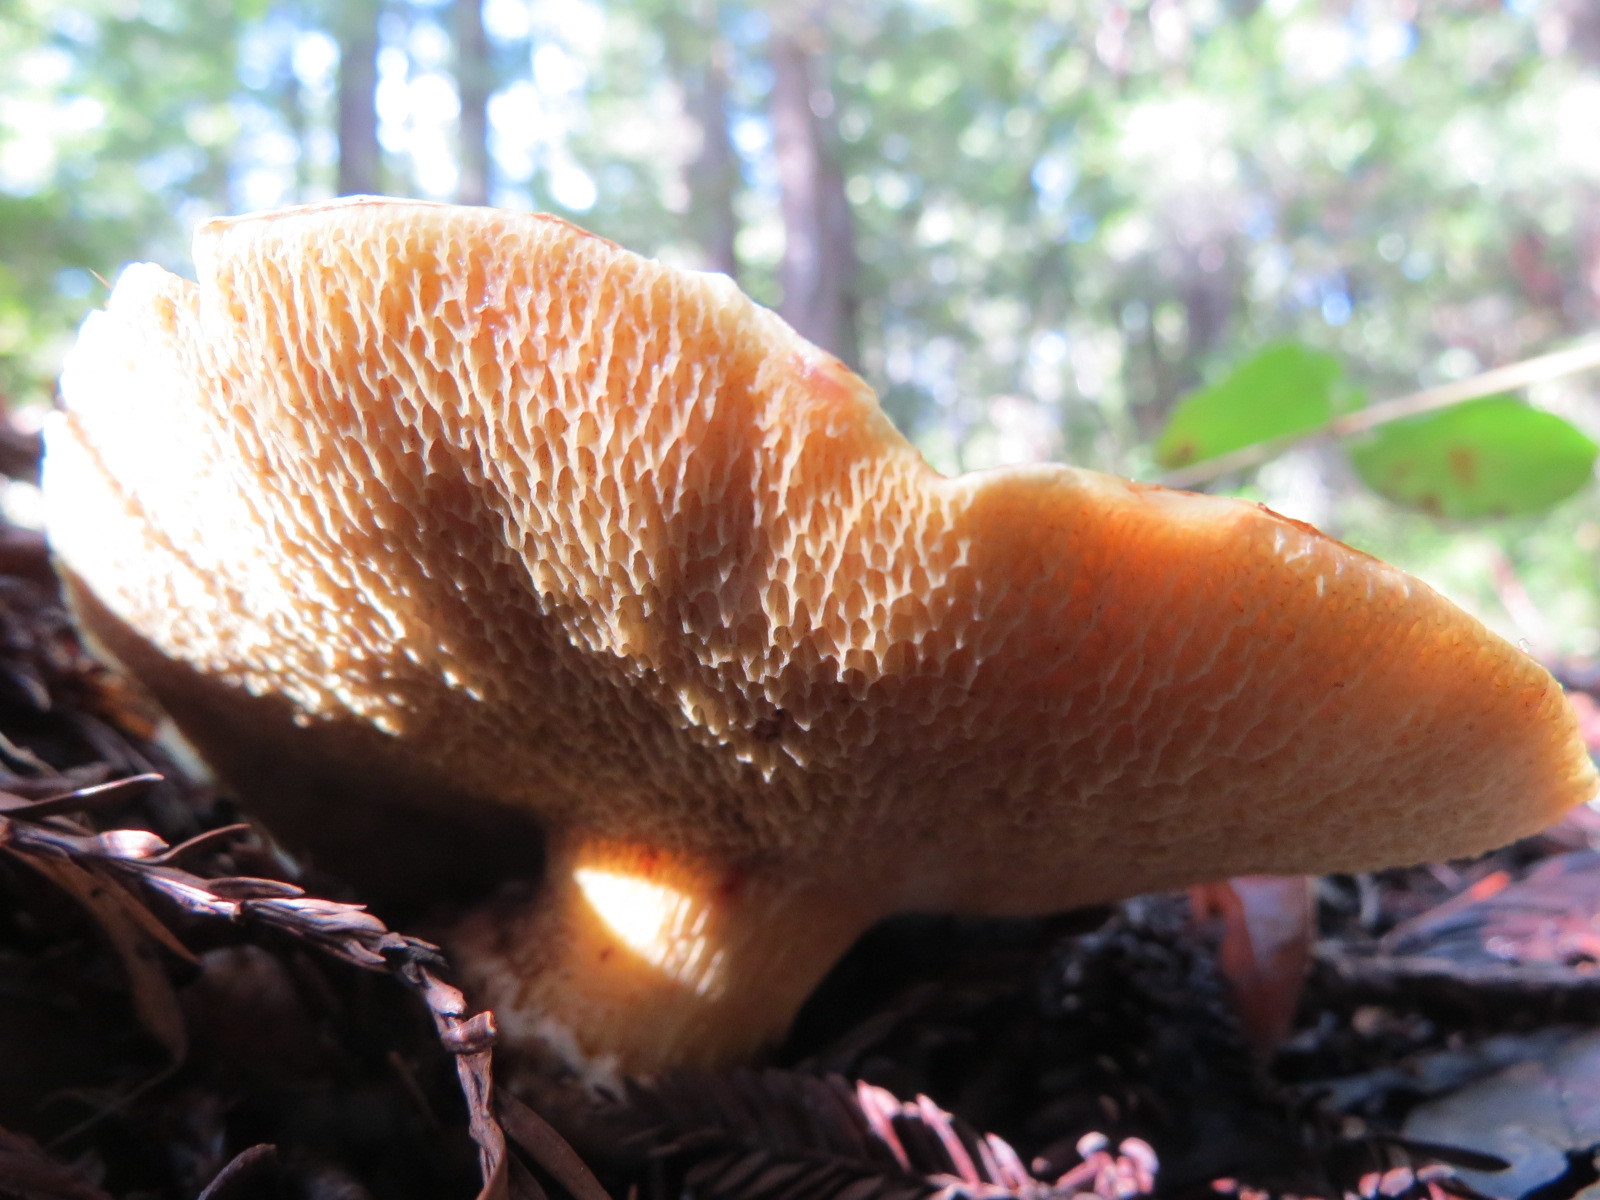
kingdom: Fungi
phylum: Basidiomycota
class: Agaricomycetes
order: Boletales
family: Suillaceae
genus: Suillus
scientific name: Suillus caerulescens
